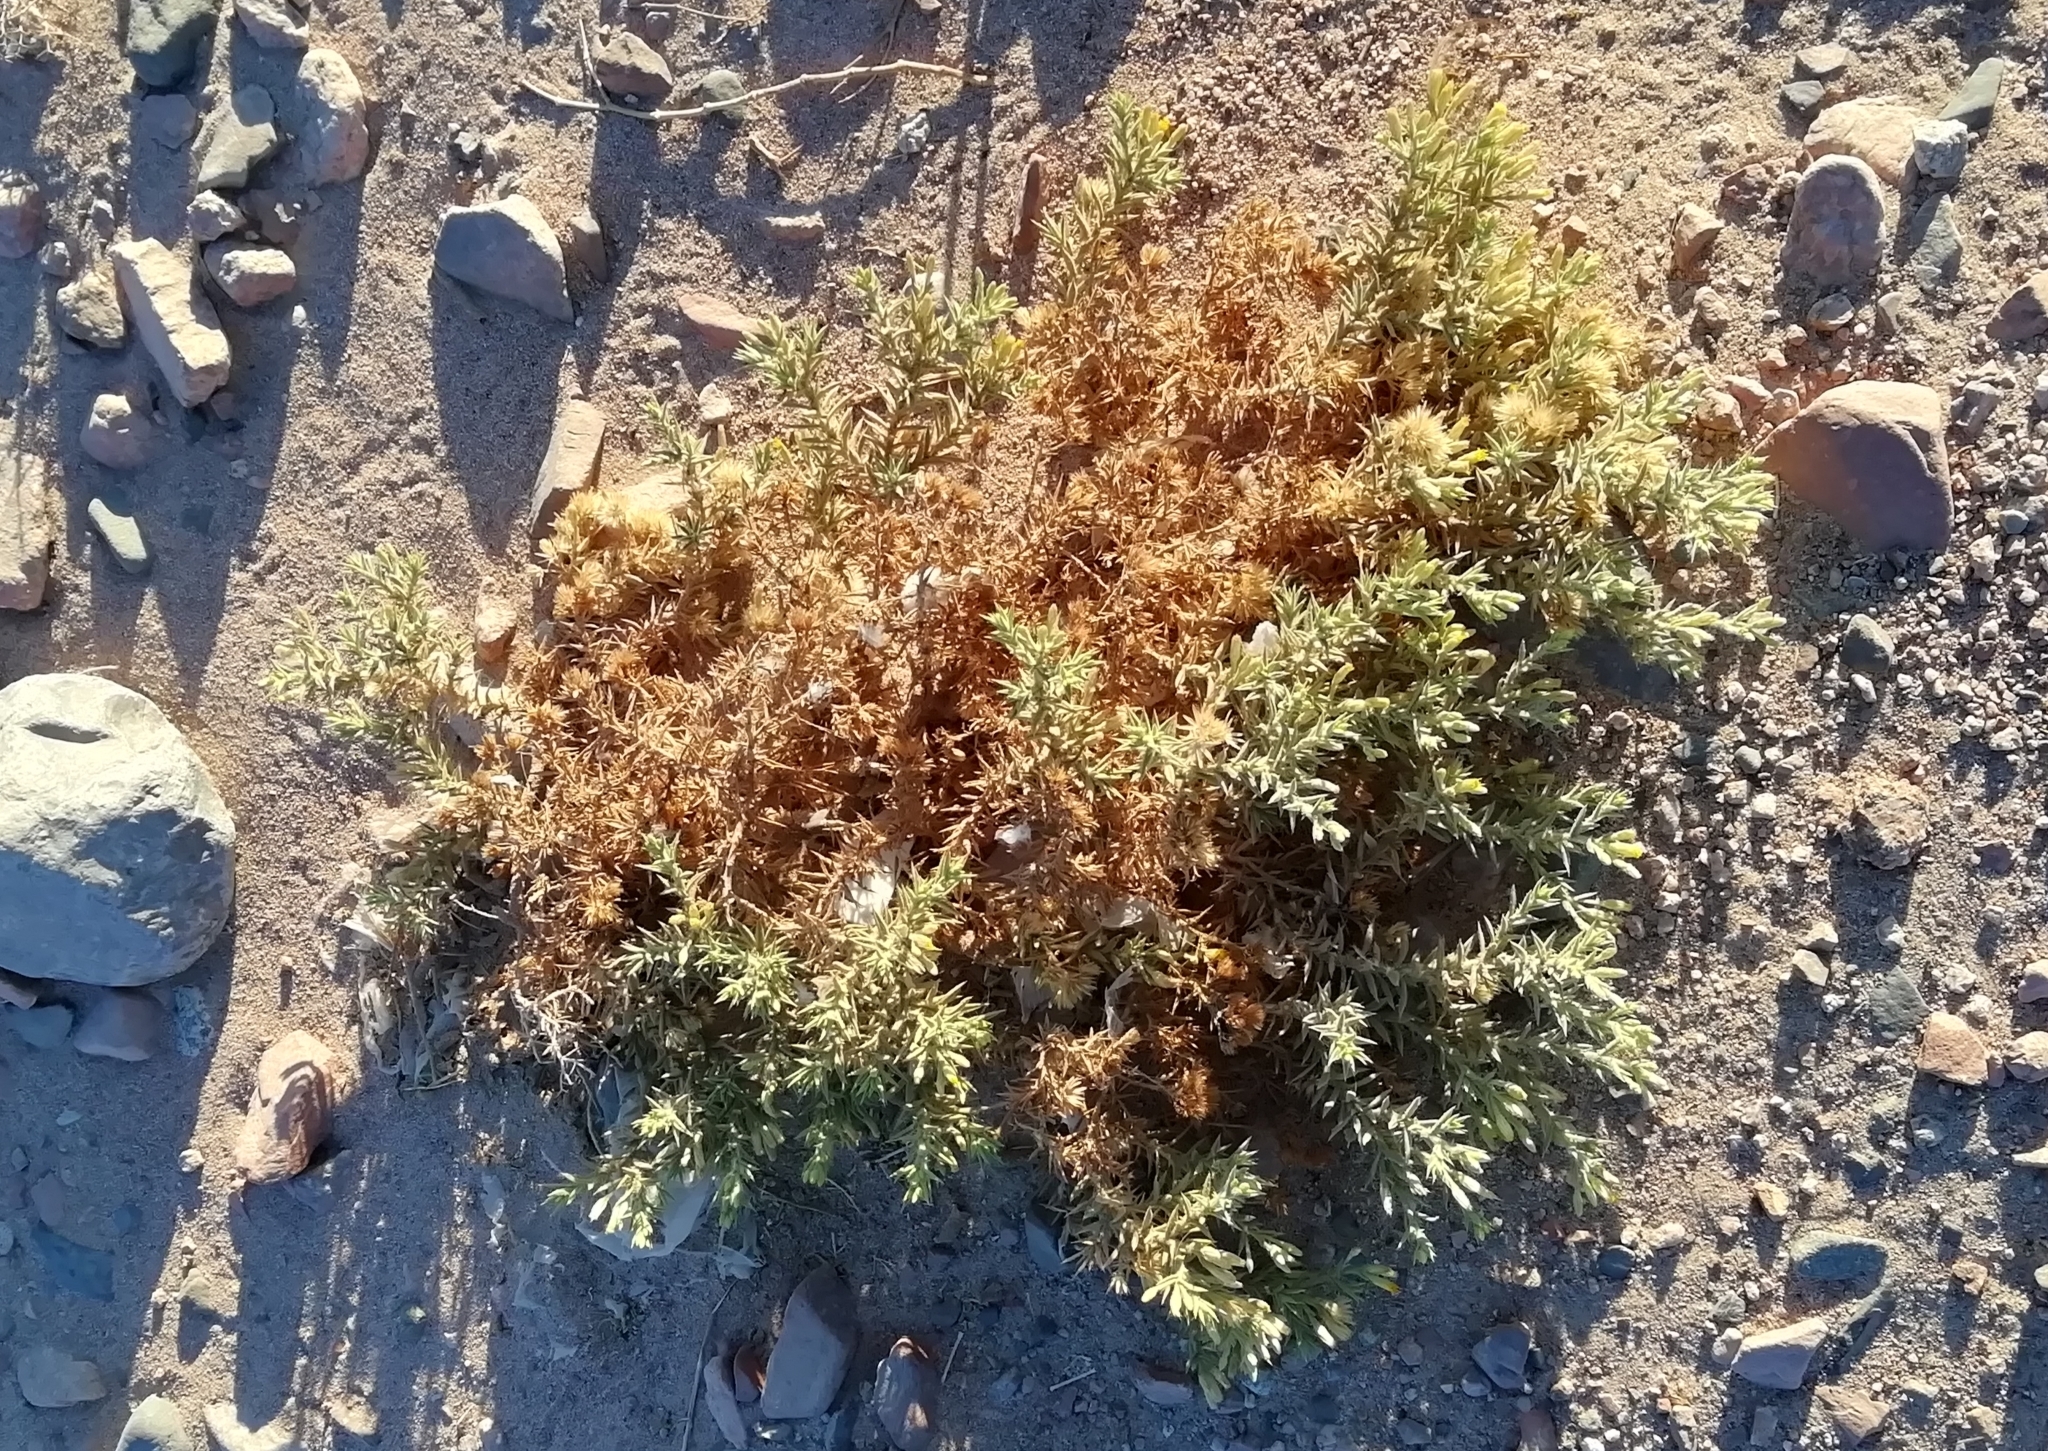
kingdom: Plantae
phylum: Tracheophyta
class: Magnoliopsida
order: Asterales
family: Asteraceae
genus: Iphiona
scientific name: Iphiona scabra
